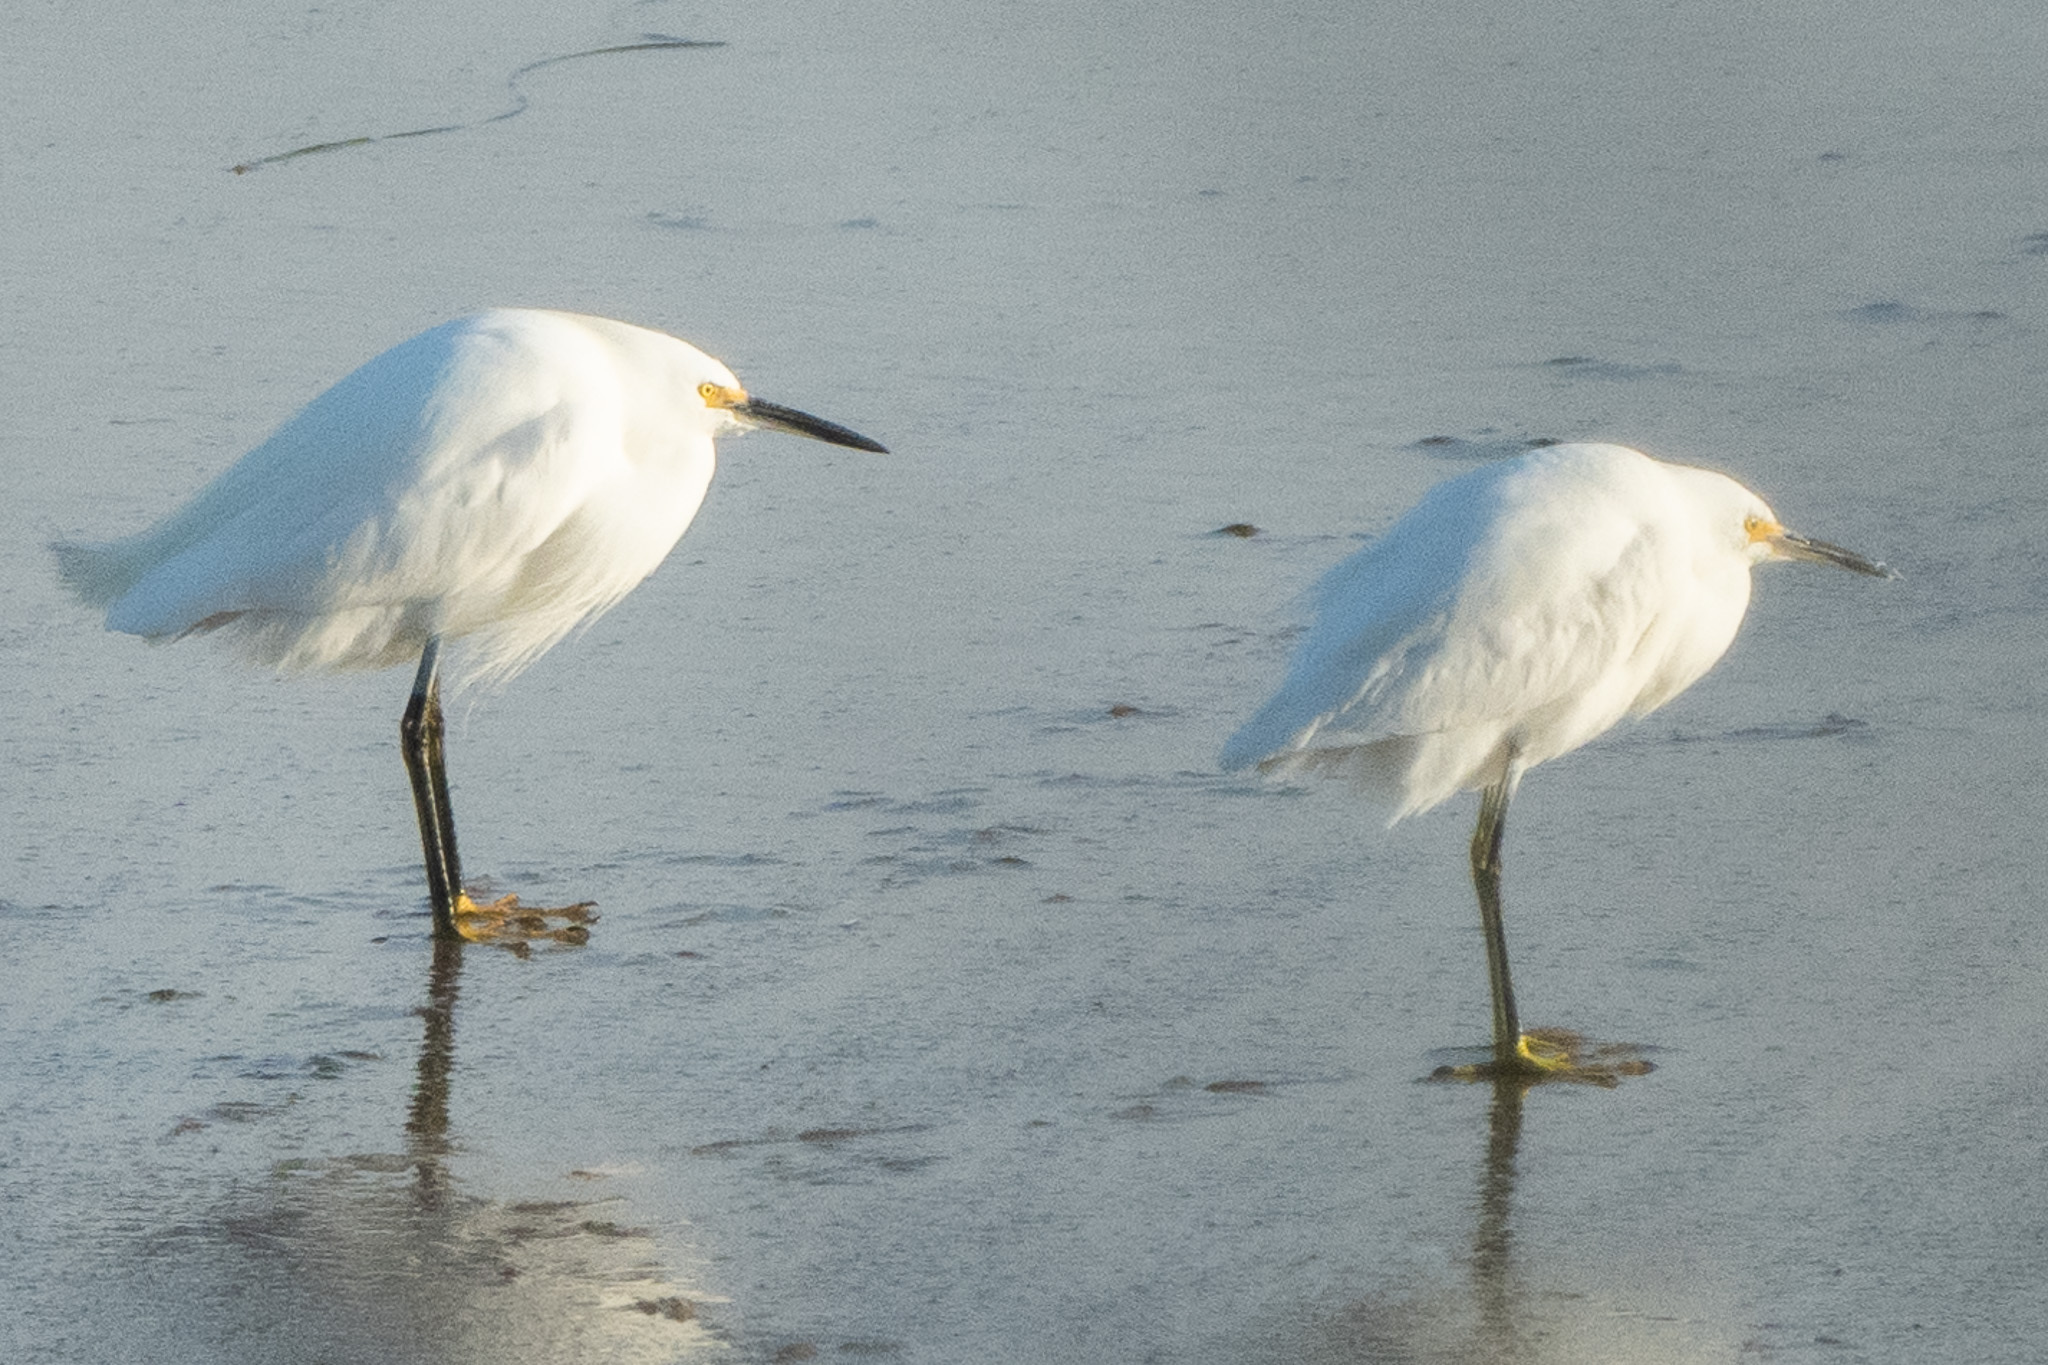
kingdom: Animalia
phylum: Chordata
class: Aves
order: Pelecaniformes
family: Ardeidae
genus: Egretta
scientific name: Egretta thula
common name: Snowy egret
